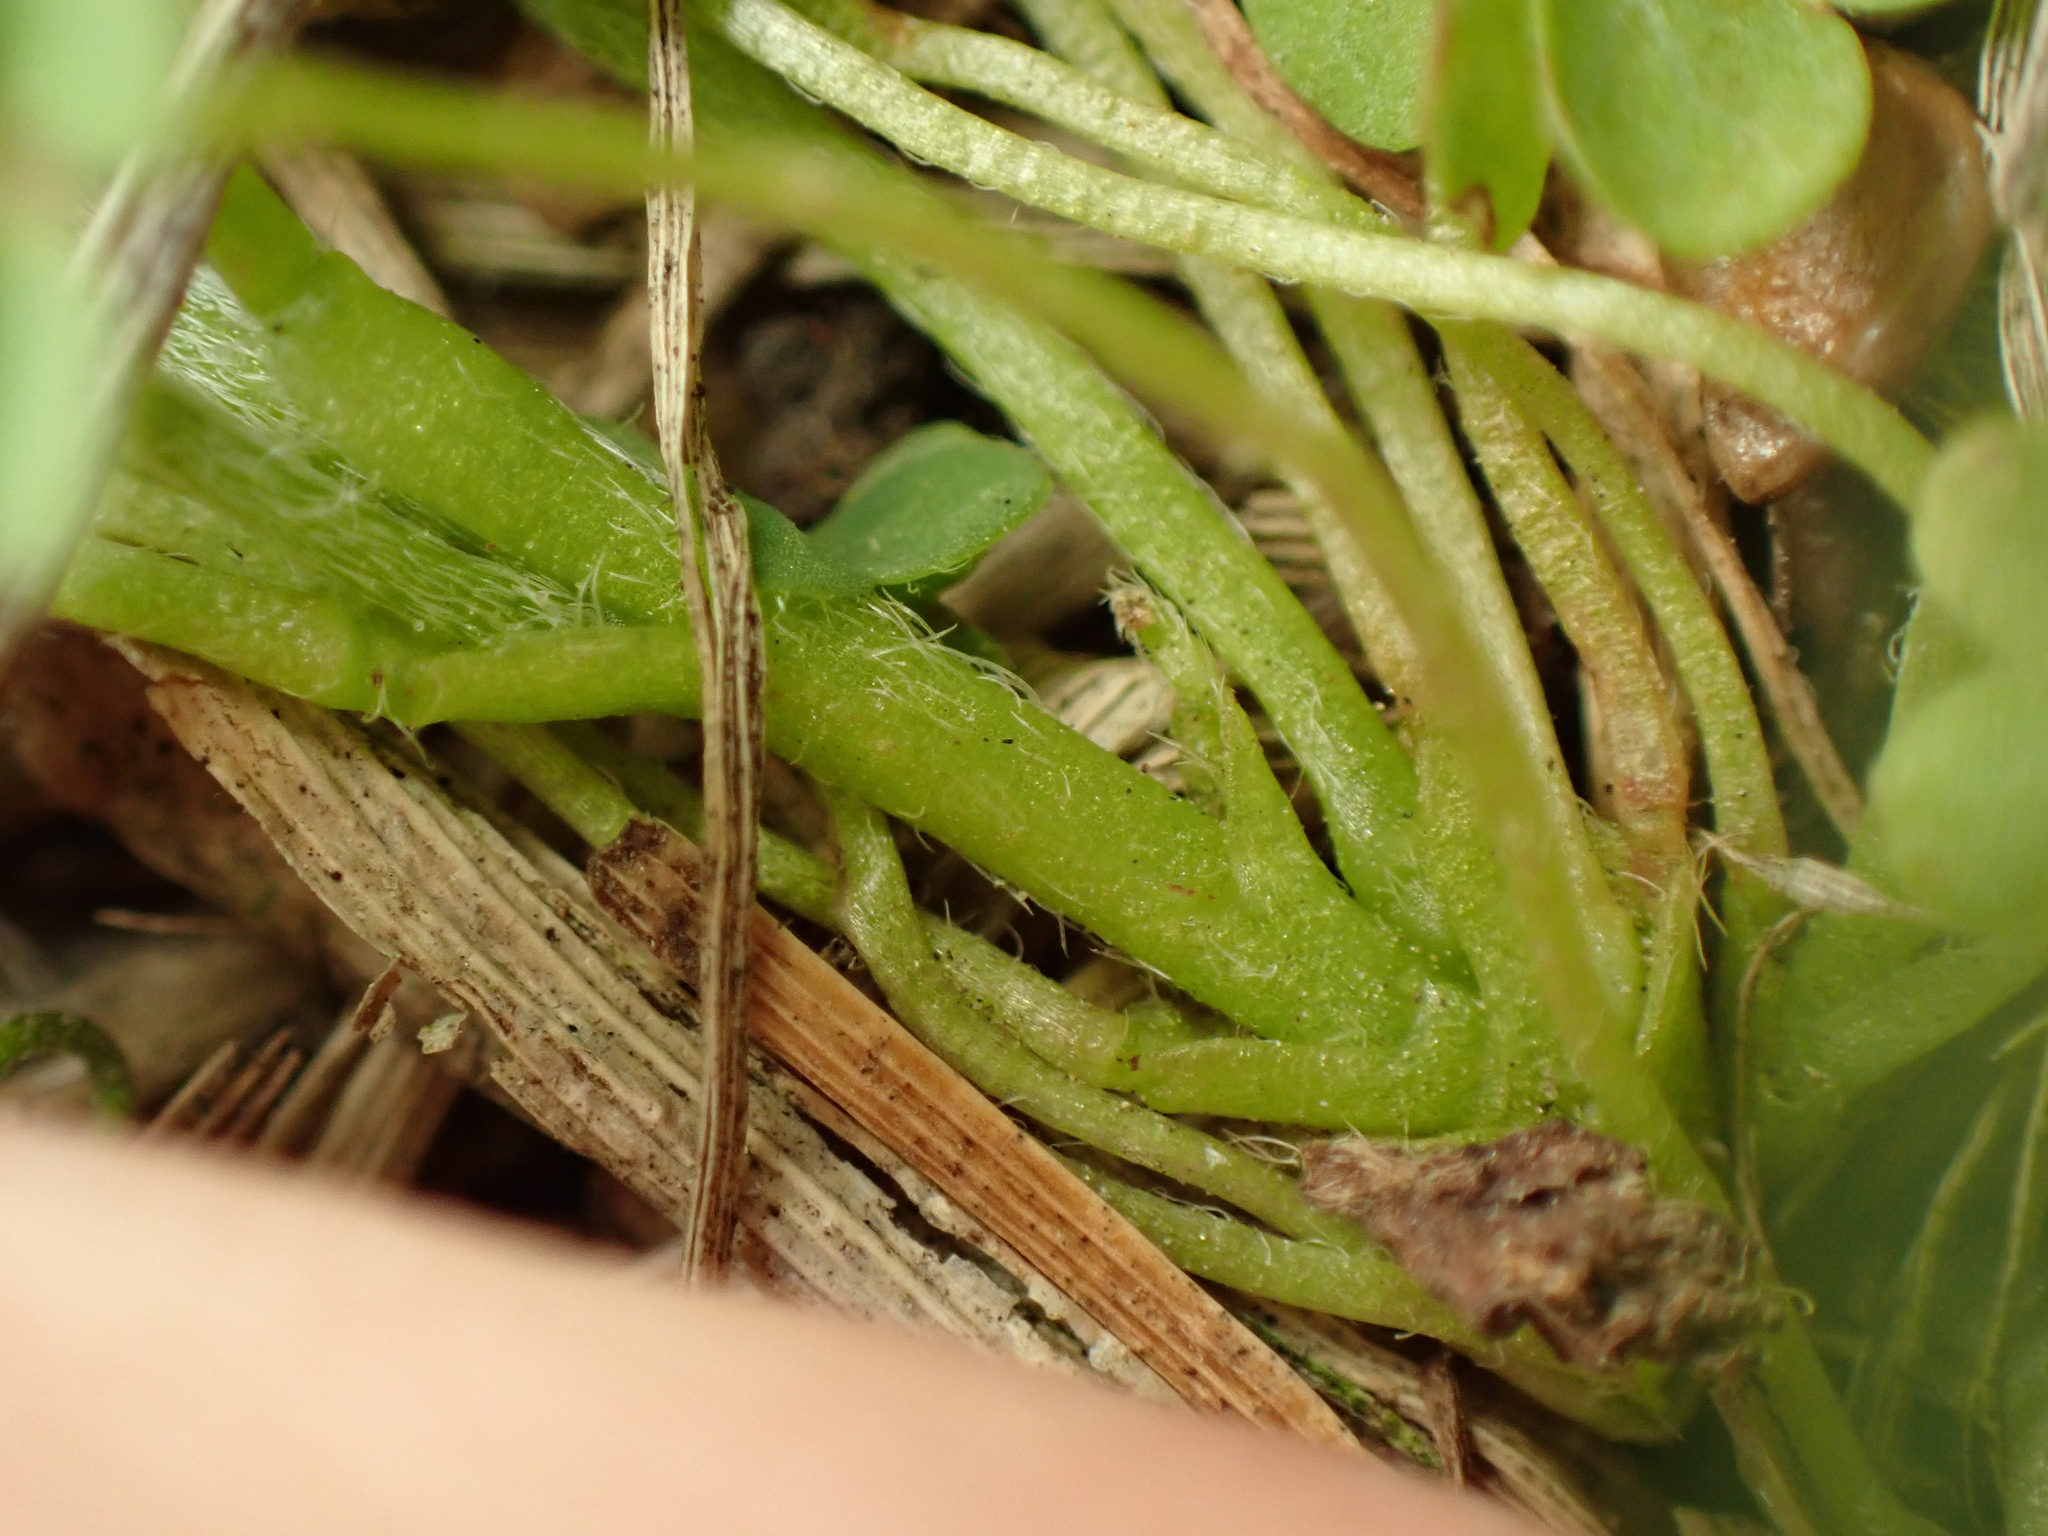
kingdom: Plantae
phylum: Tracheophyta
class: Magnoliopsida
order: Oxalidales
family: Oxalidaceae
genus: Oxalis
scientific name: Oxalis dillenii
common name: Sussex yellow-sorrel
